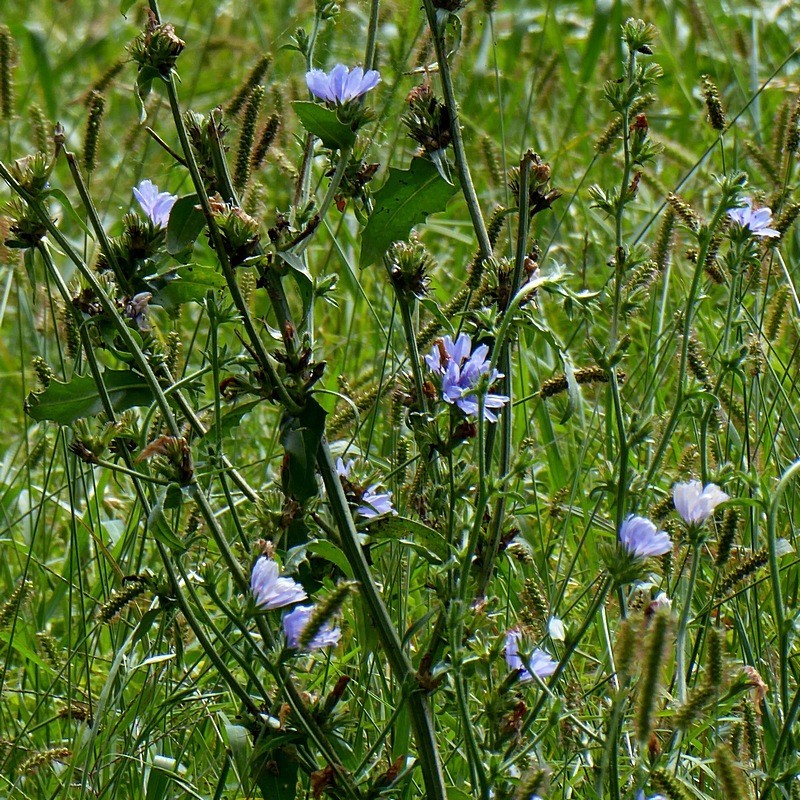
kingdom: Plantae
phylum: Tracheophyta
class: Magnoliopsida
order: Asterales
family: Asteraceae
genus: Cichorium
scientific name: Cichorium intybus
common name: Chicory
